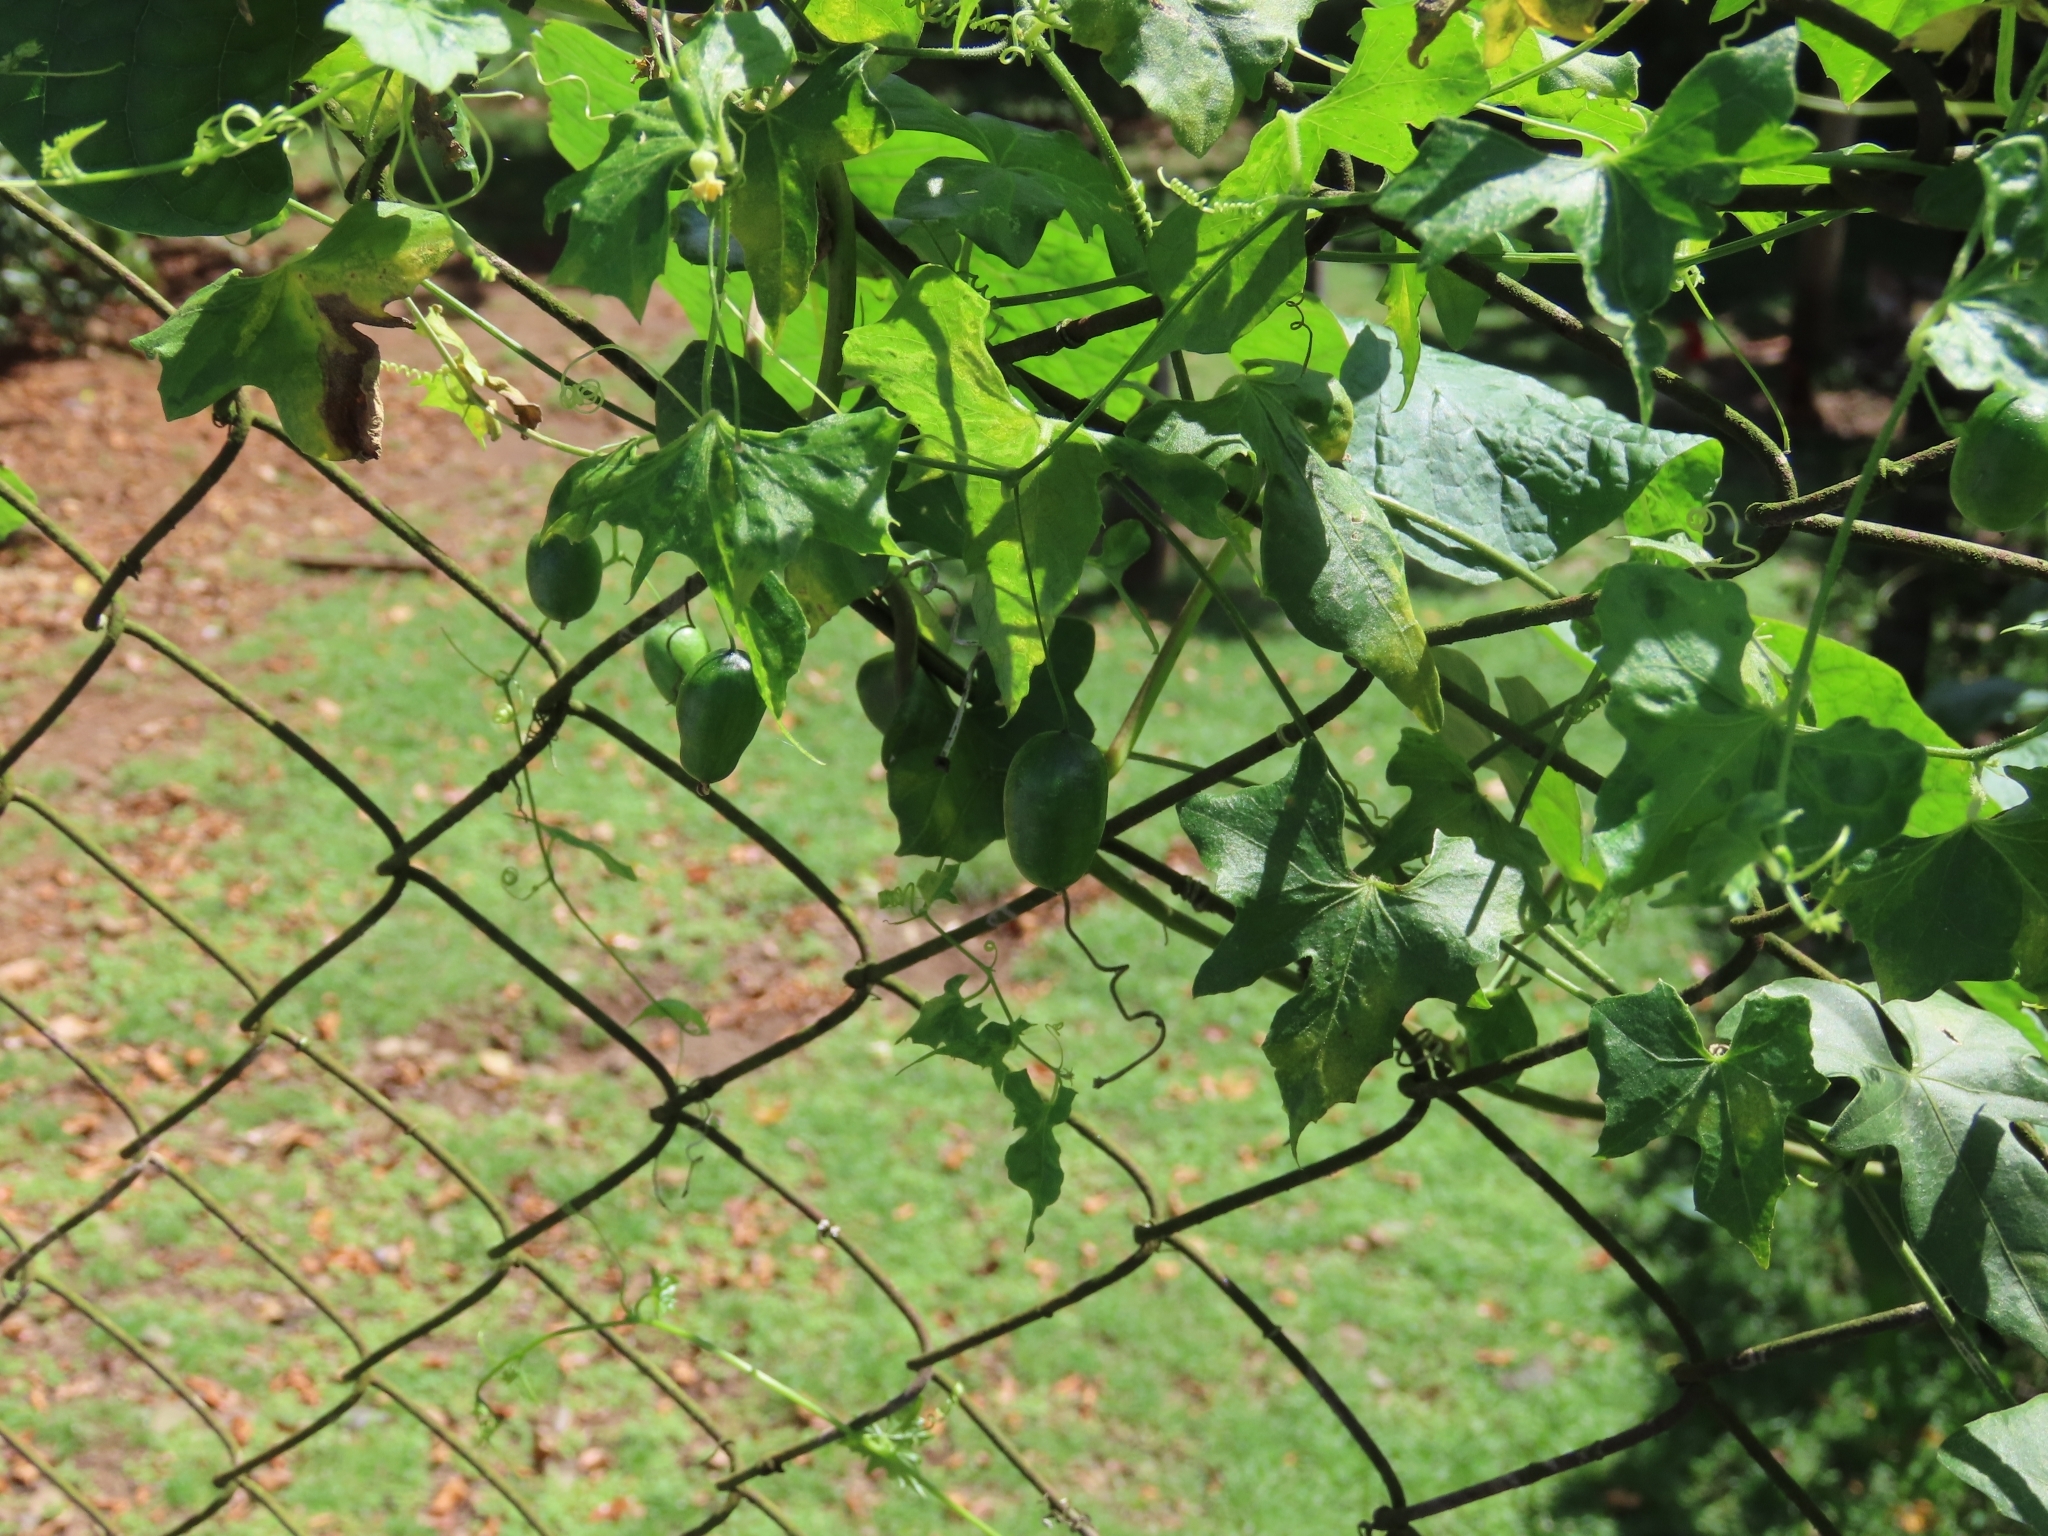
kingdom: Plantae
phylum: Tracheophyta
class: Magnoliopsida
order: Cucurbitales
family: Cucurbitaceae
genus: Melothria
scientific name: Melothria pendula
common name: Creeping-cucumber
